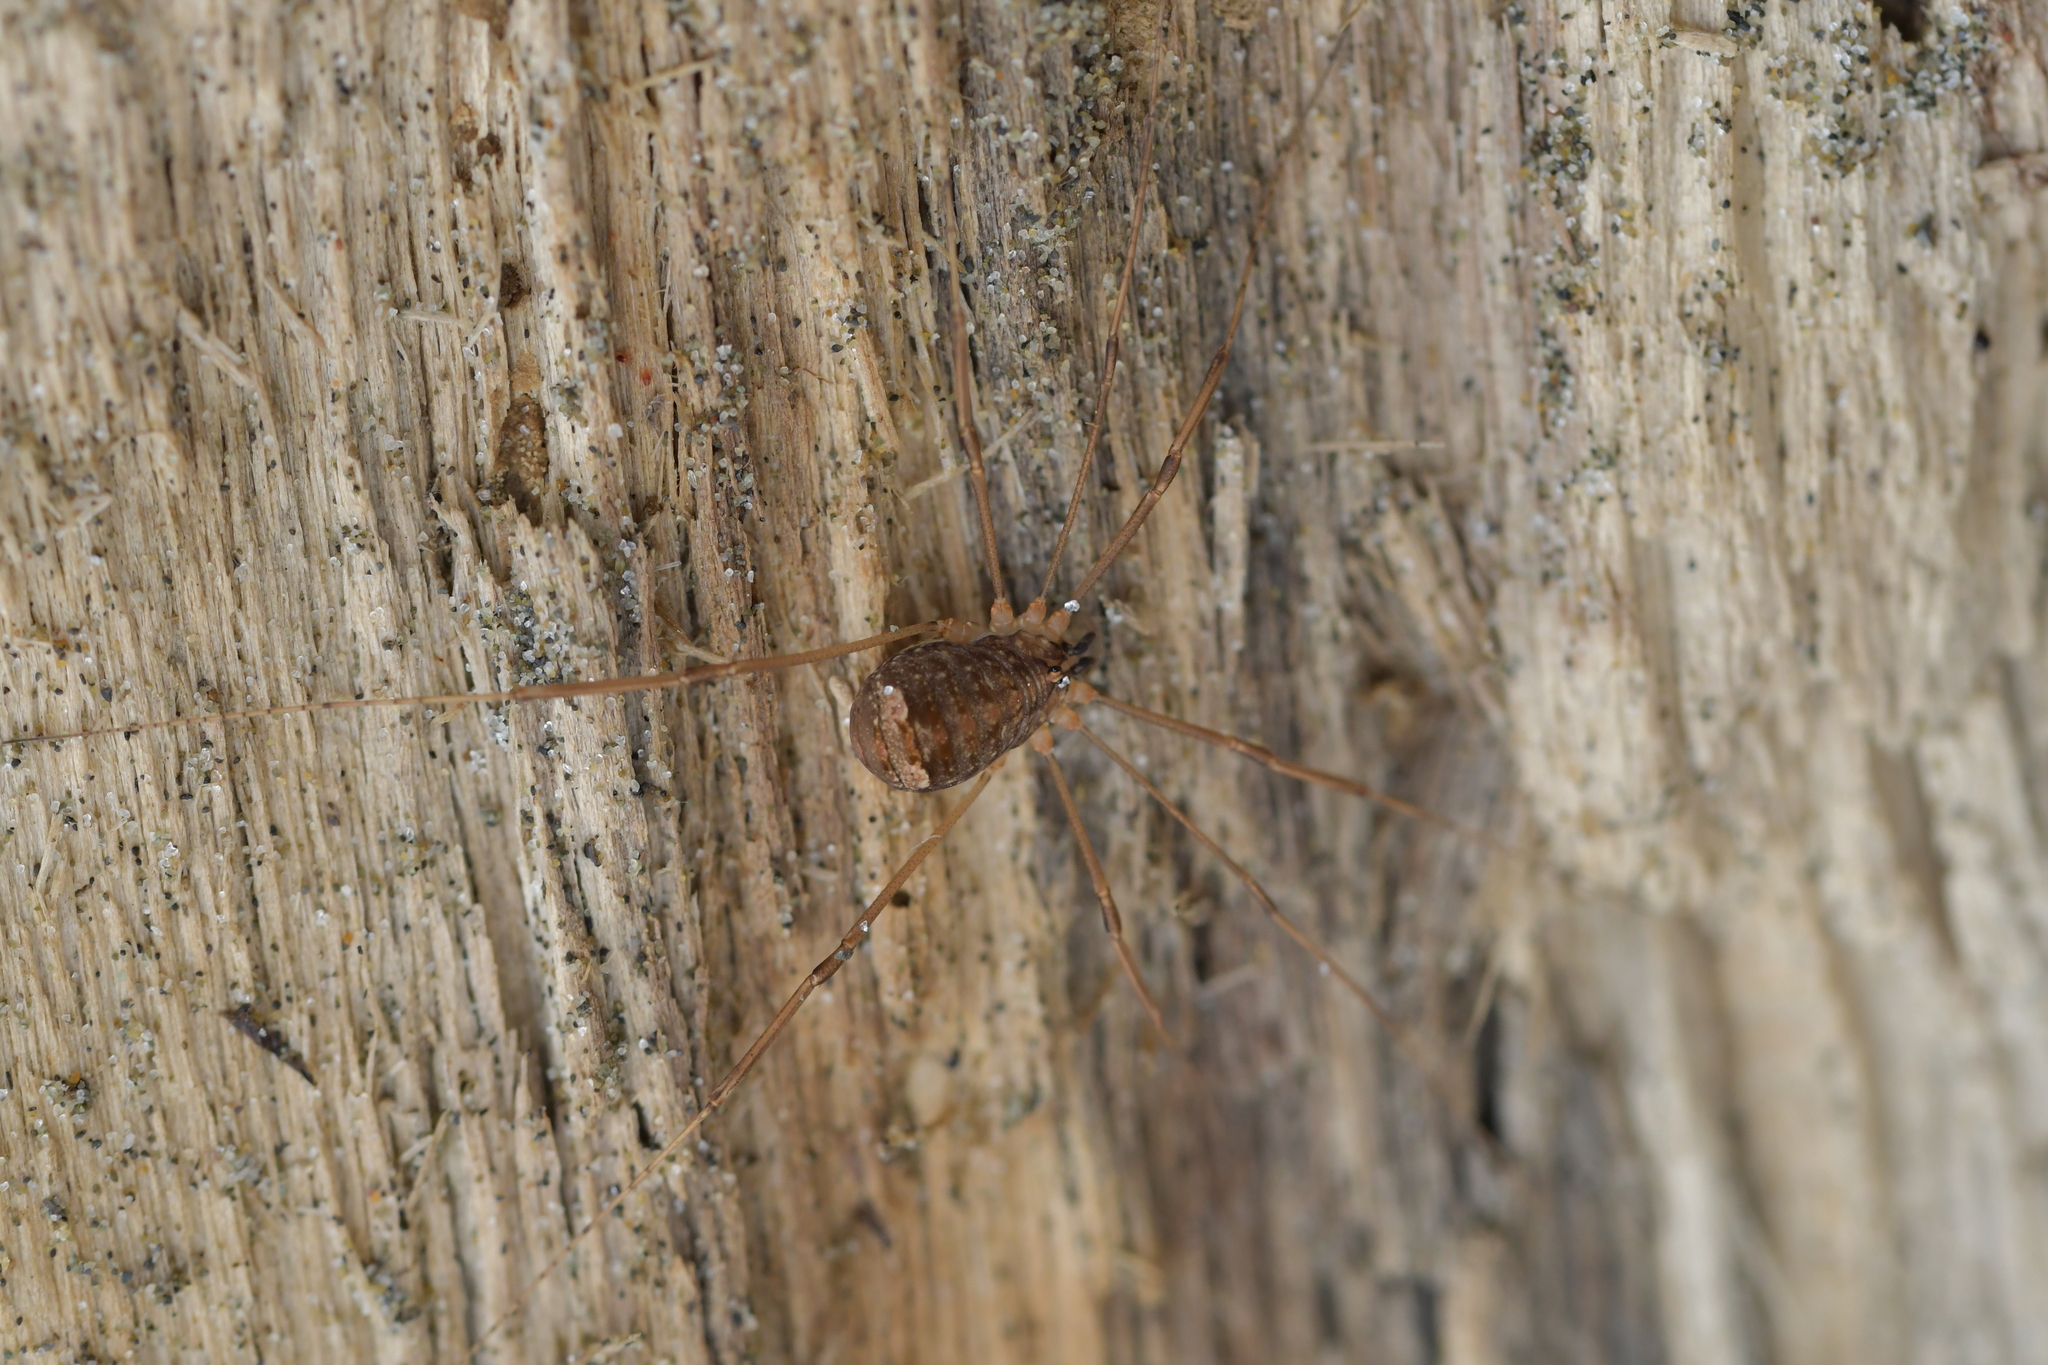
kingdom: Animalia
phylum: Arthropoda
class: Arachnida
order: Opiliones
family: Sclerosomatidae
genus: Nelima
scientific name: Nelima doriae
